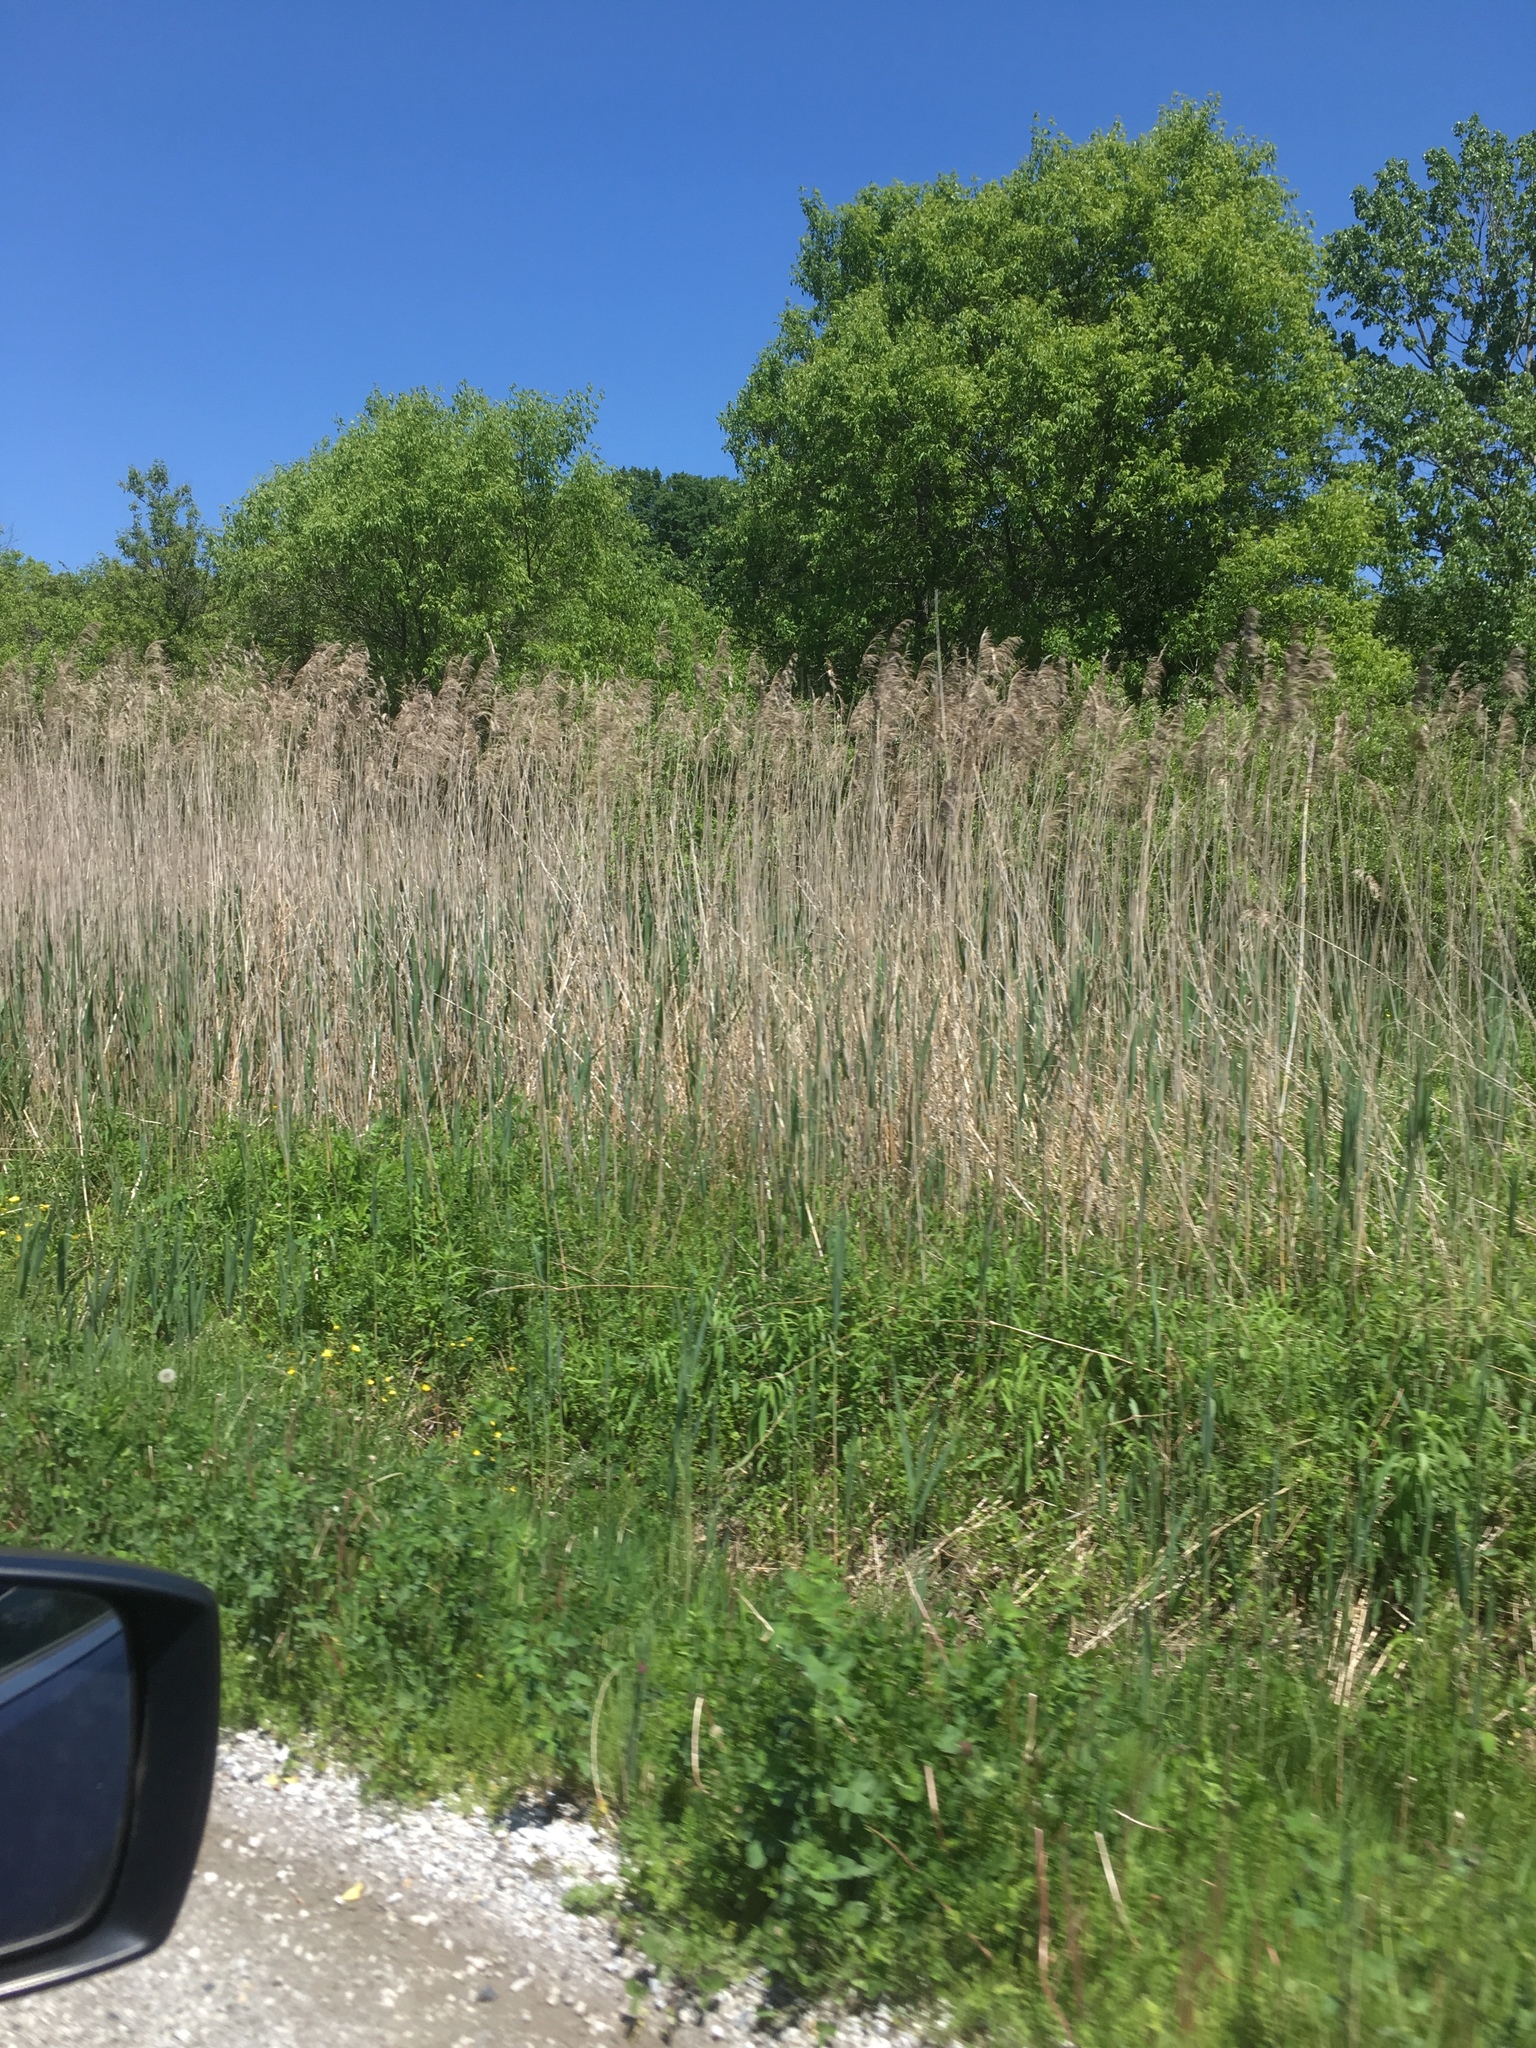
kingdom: Plantae
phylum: Tracheophyta
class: Liliopsida
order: Poales
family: Poaceae
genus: Phragmites
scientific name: Phragmites australis
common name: Common reed
